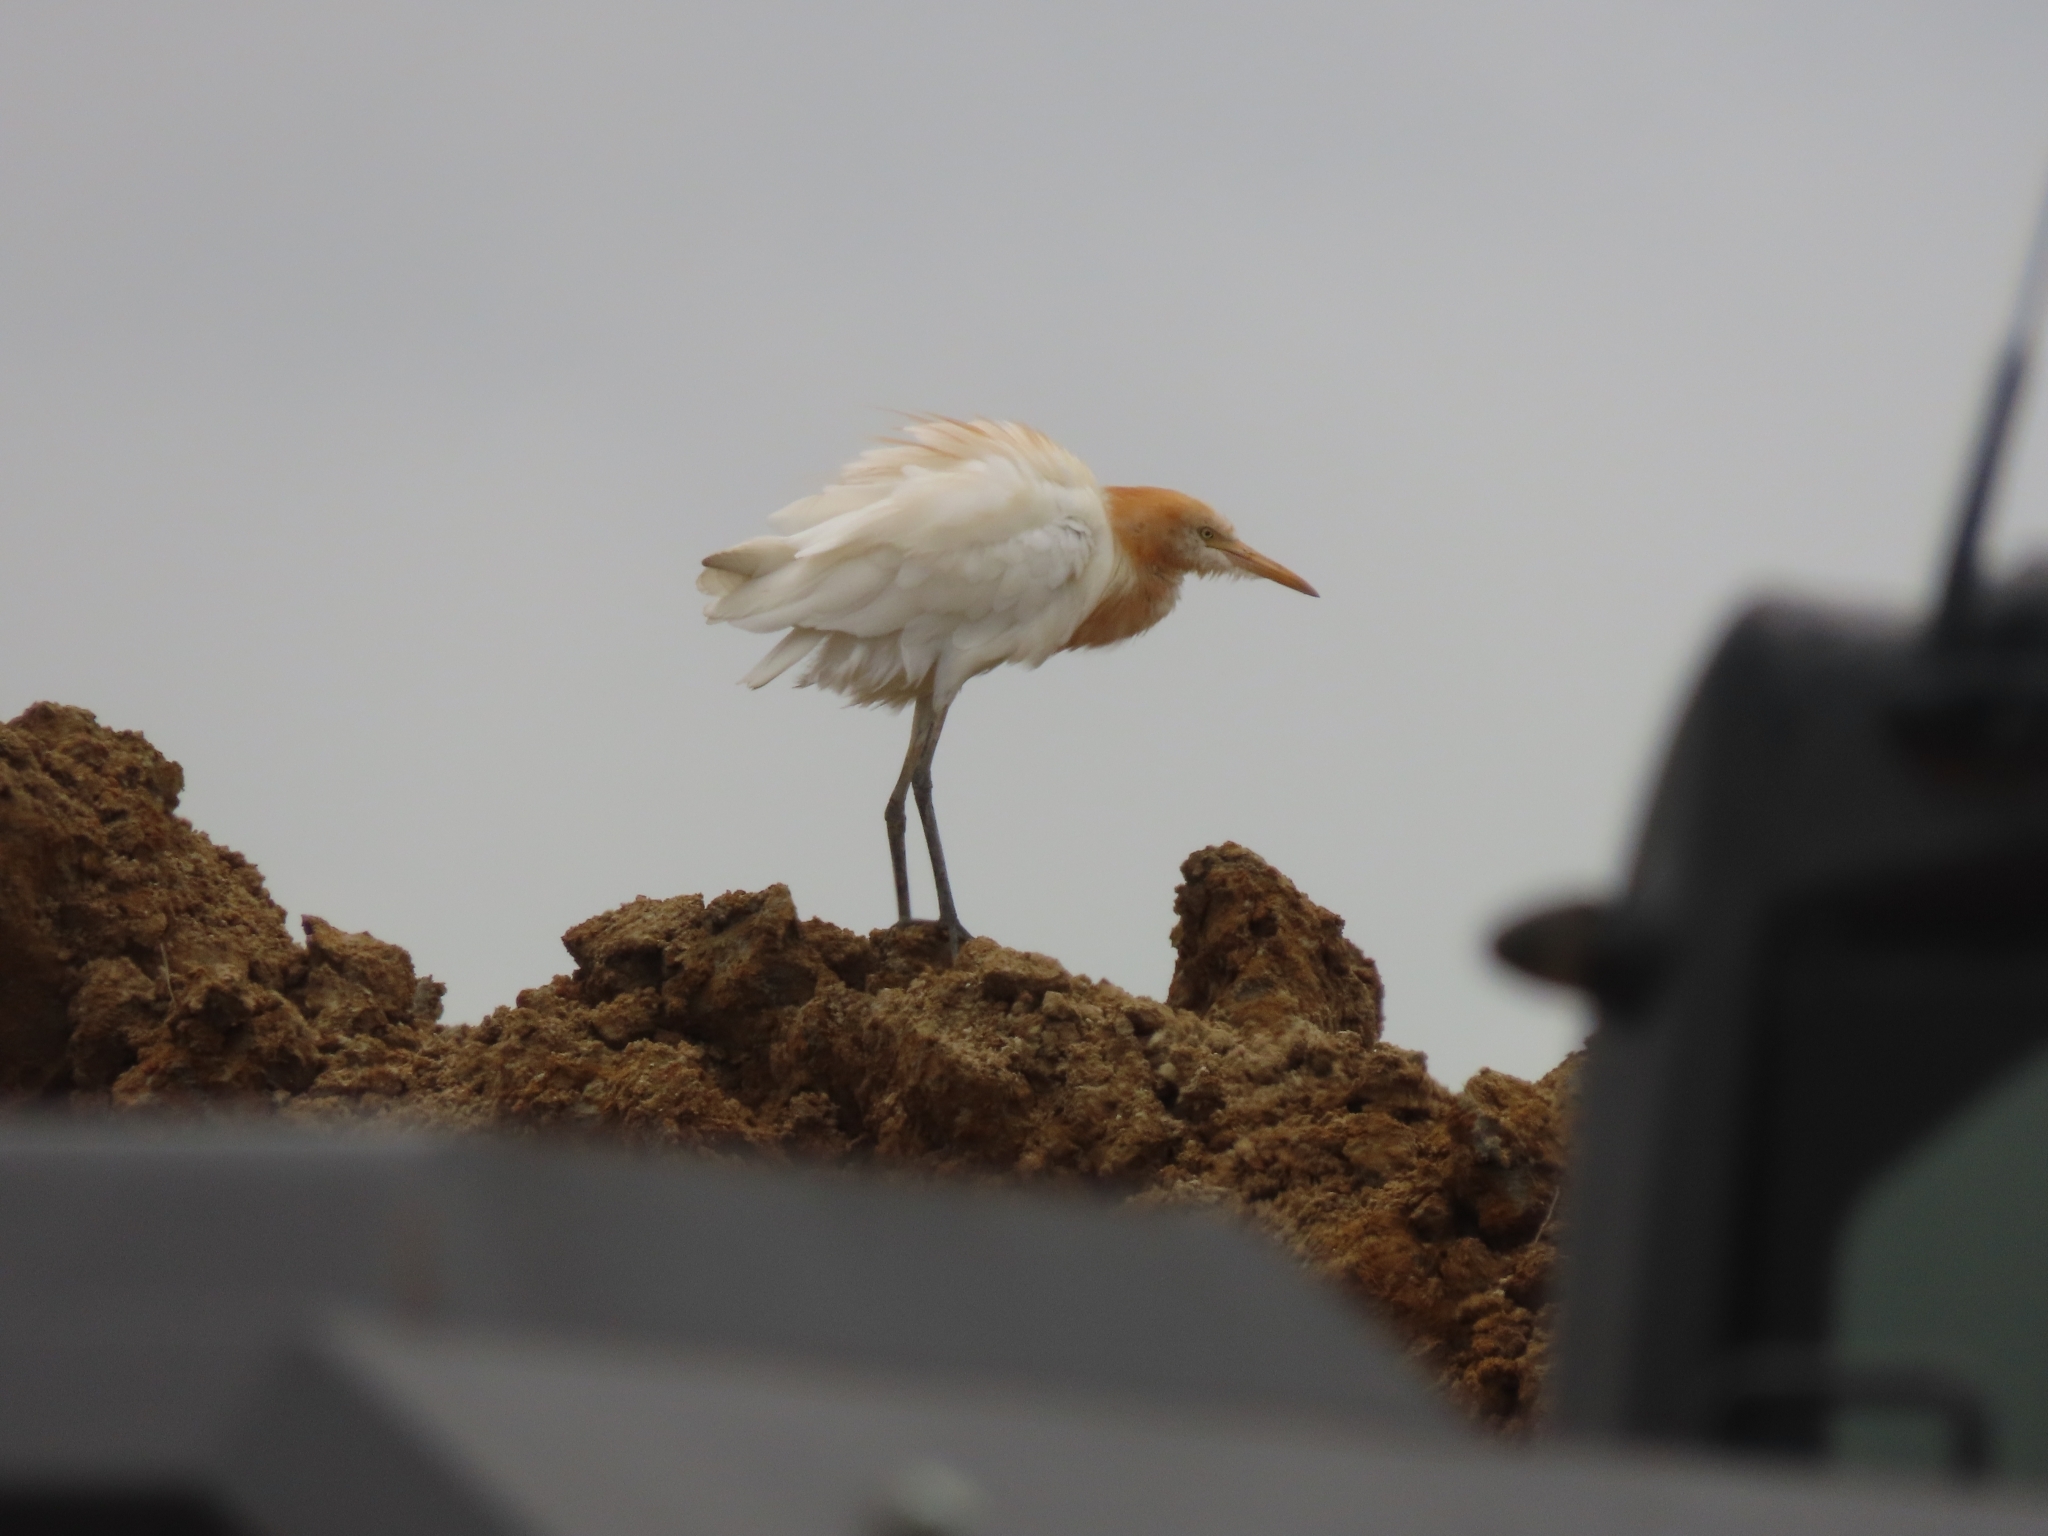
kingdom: Animalia
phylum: Chordata
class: Aves
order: Pelecaniformes
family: Ardeidae
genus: Bubulcus
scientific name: Bubulcus coromandus
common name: Eastern cattle egret
